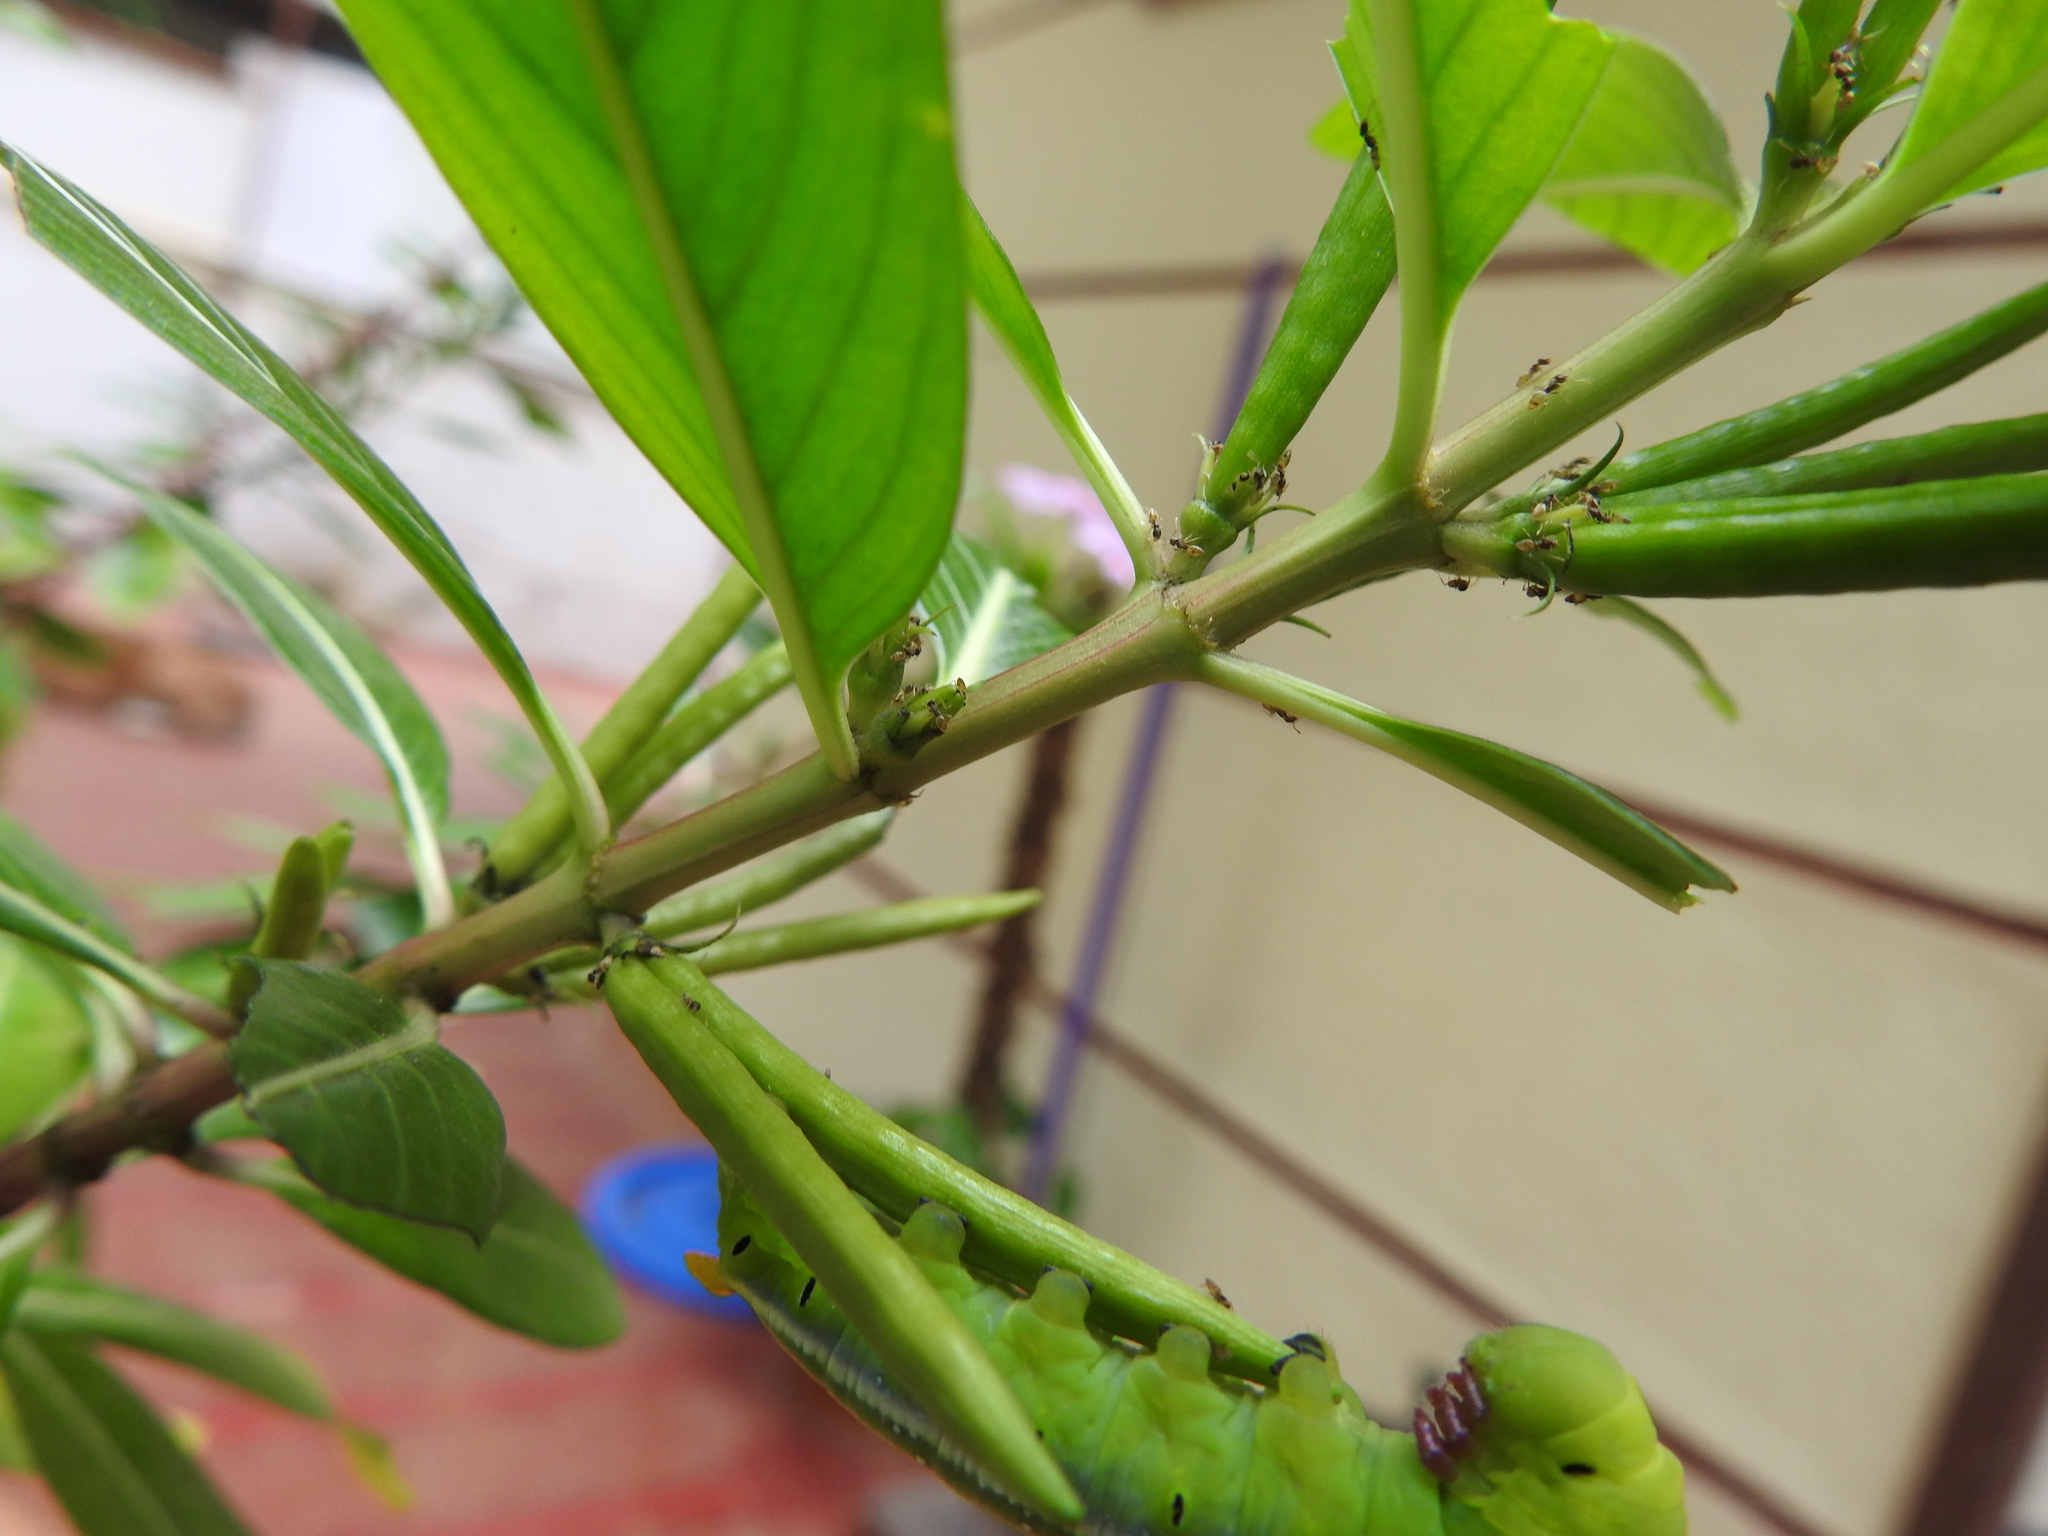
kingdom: Animalia
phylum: Arthropoda
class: Insecta
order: Hymenoptera
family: Formicidae
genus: Tapinoma
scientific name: Tapinoma melanocephalum
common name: Ghost ant
